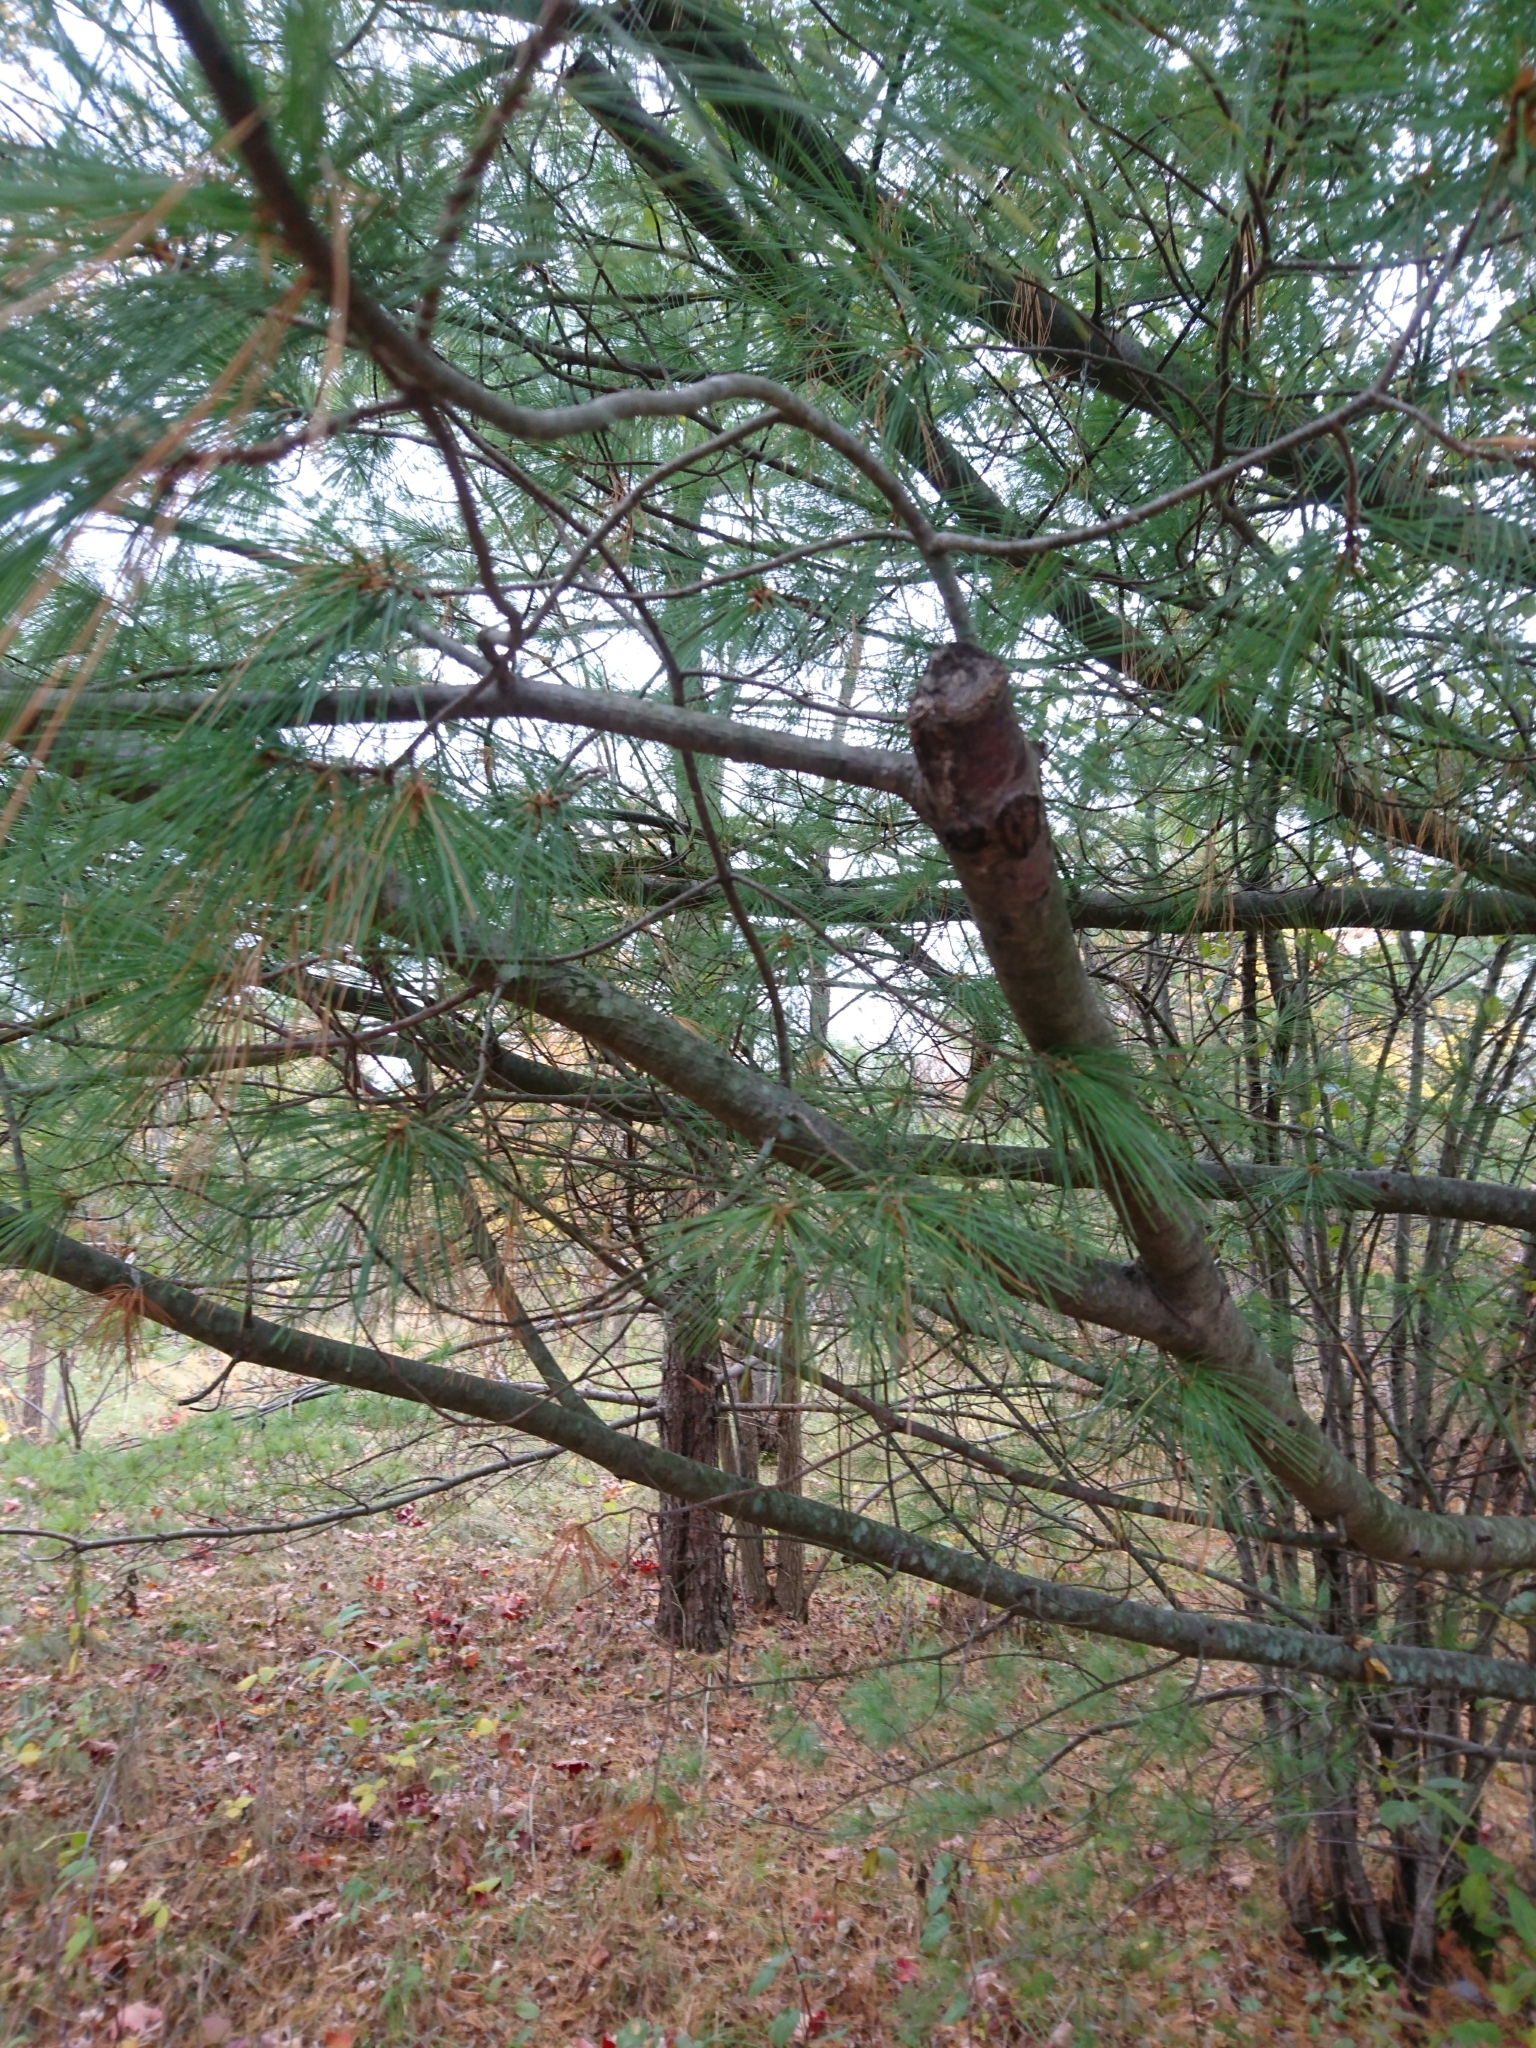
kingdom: Plantae
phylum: Tracheophyta
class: Pinopsida
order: Pinales
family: Pinaceae
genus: Pinus
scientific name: Pinus strobus
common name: Weymouth pine
